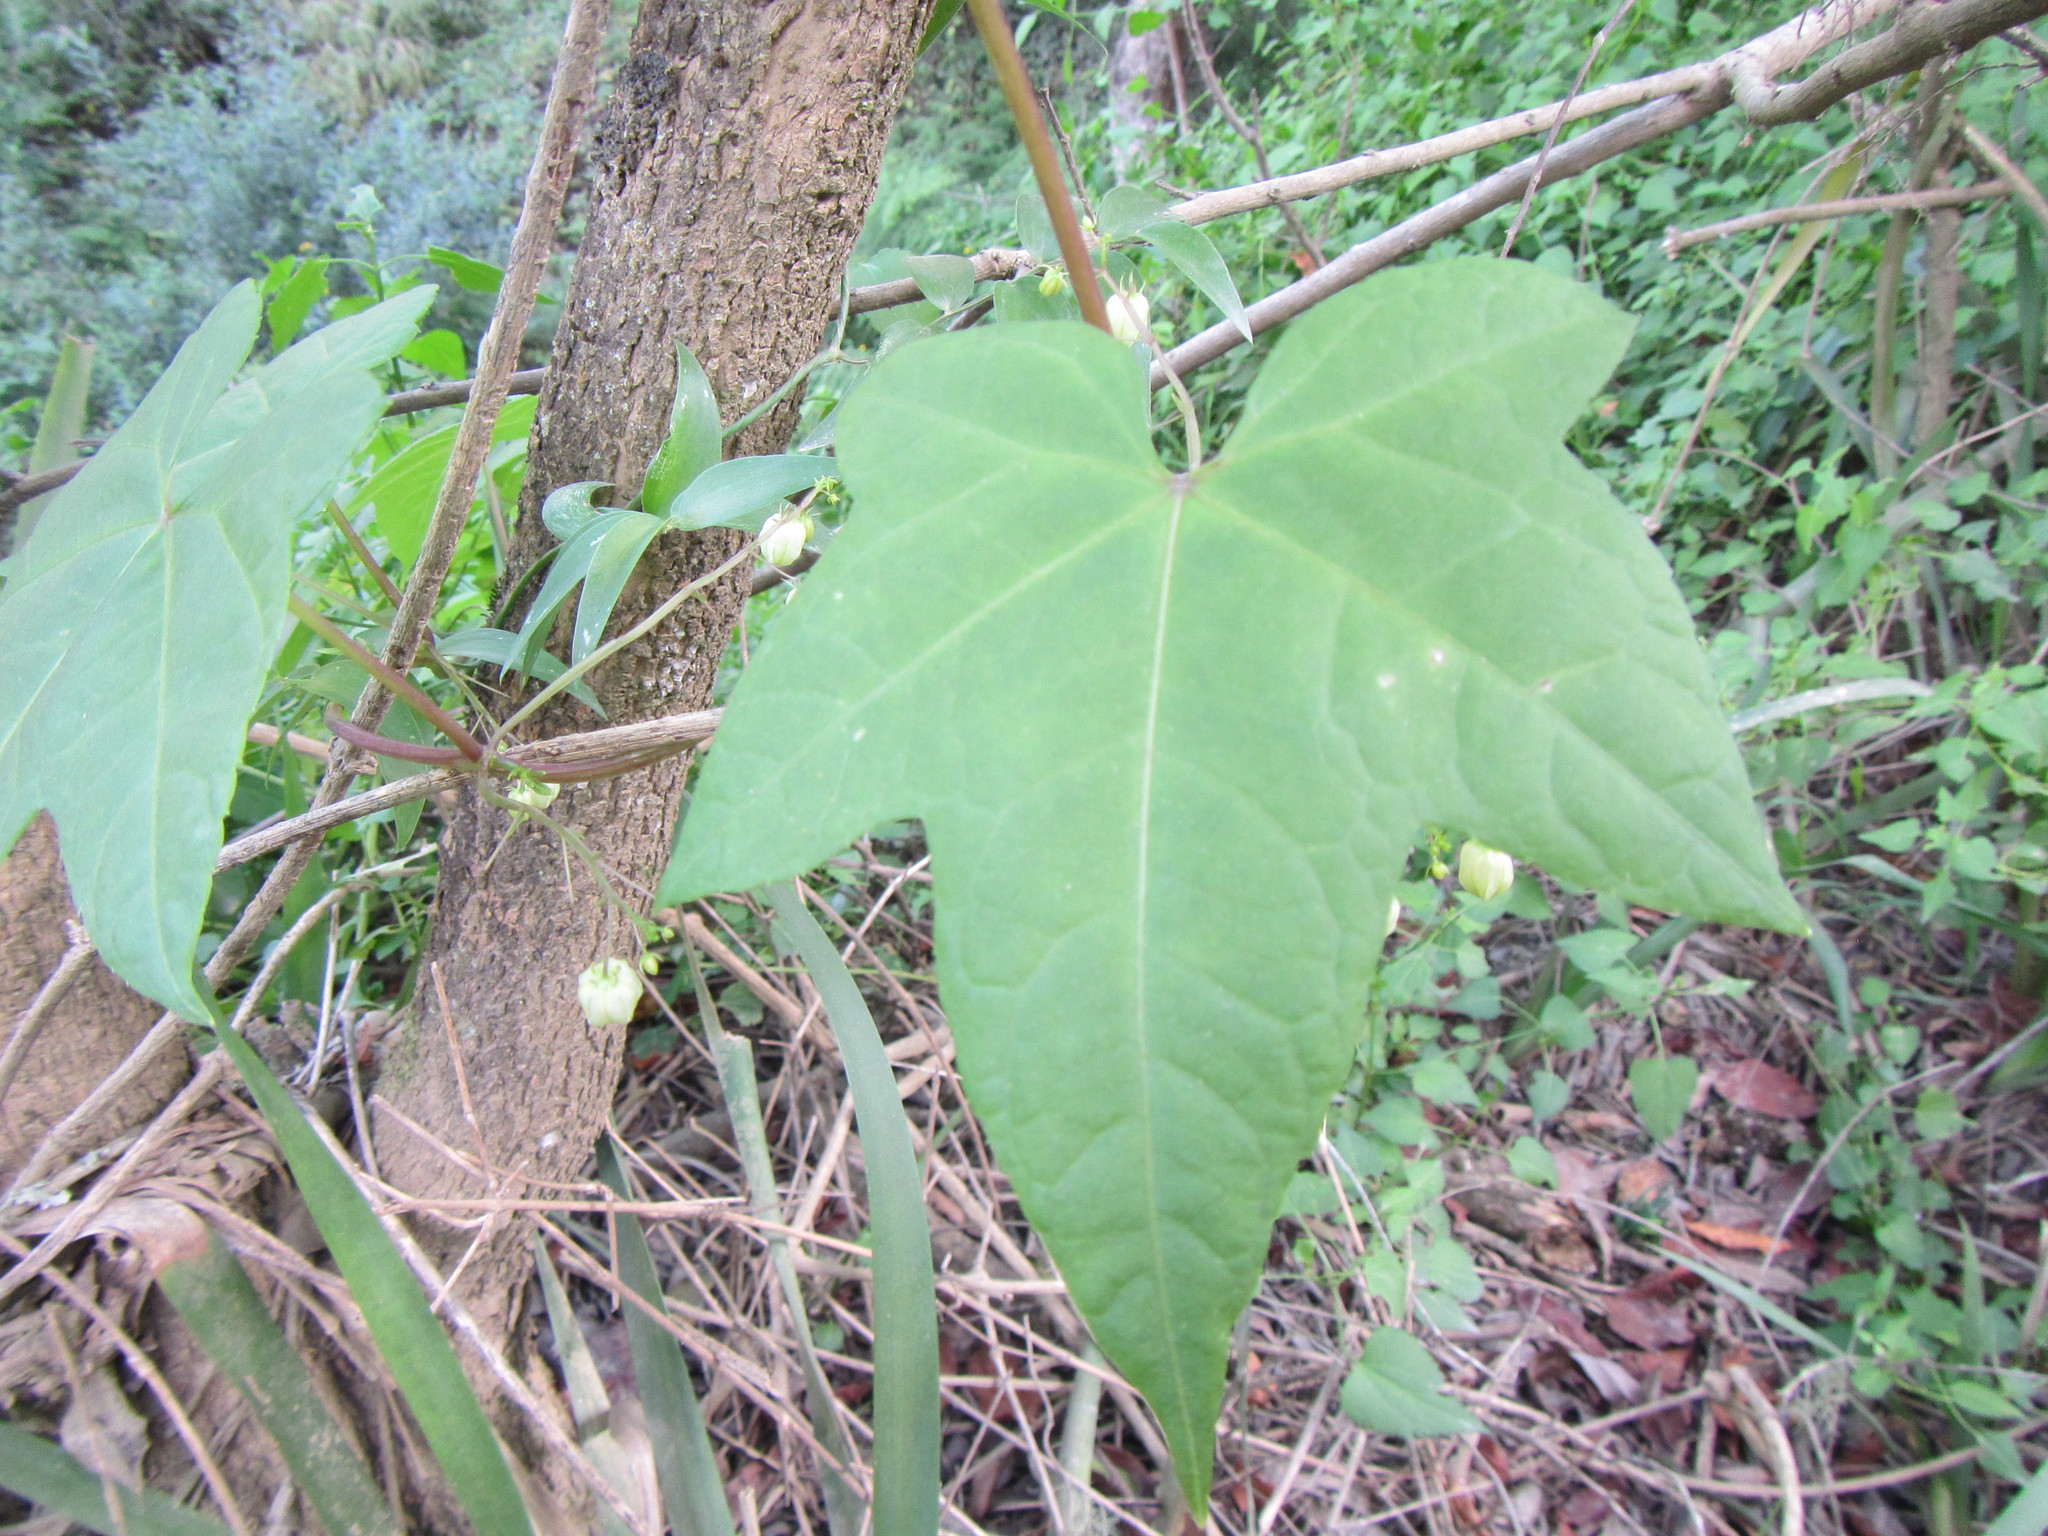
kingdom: Plantae
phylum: Tracheophyta
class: Magnoliopsida
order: Malpighiales
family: Achariaceae
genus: Ceratiosicyos
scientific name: Ceratiosicyos laevis
